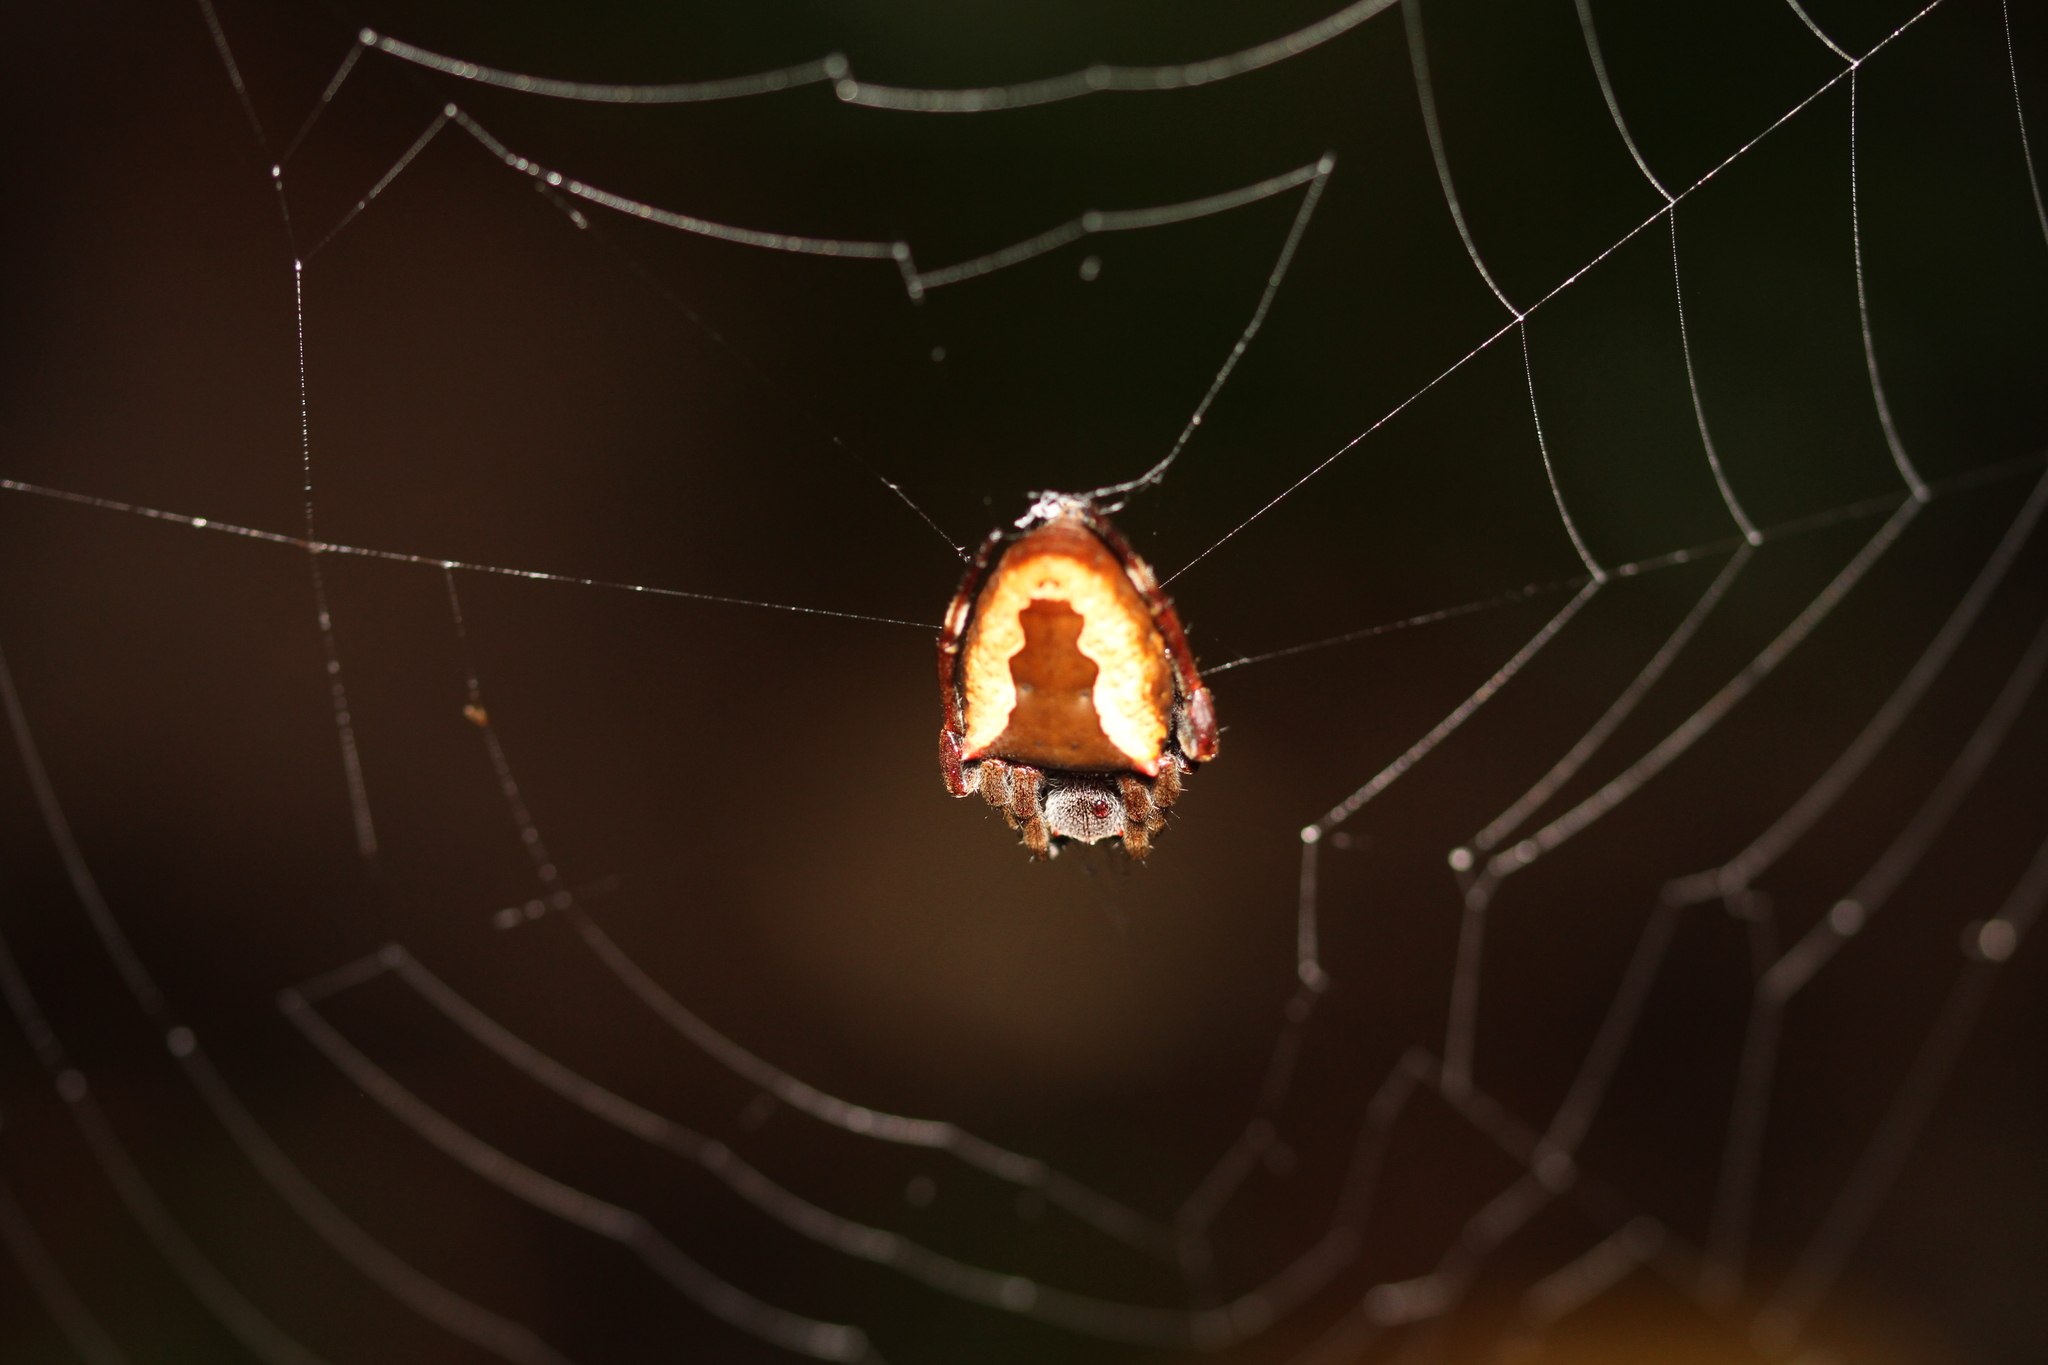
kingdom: Animalia
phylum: Arthropoda
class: Arachnida
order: Araneae
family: Araneidae
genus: Parawixia
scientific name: Parawixia dehaani
